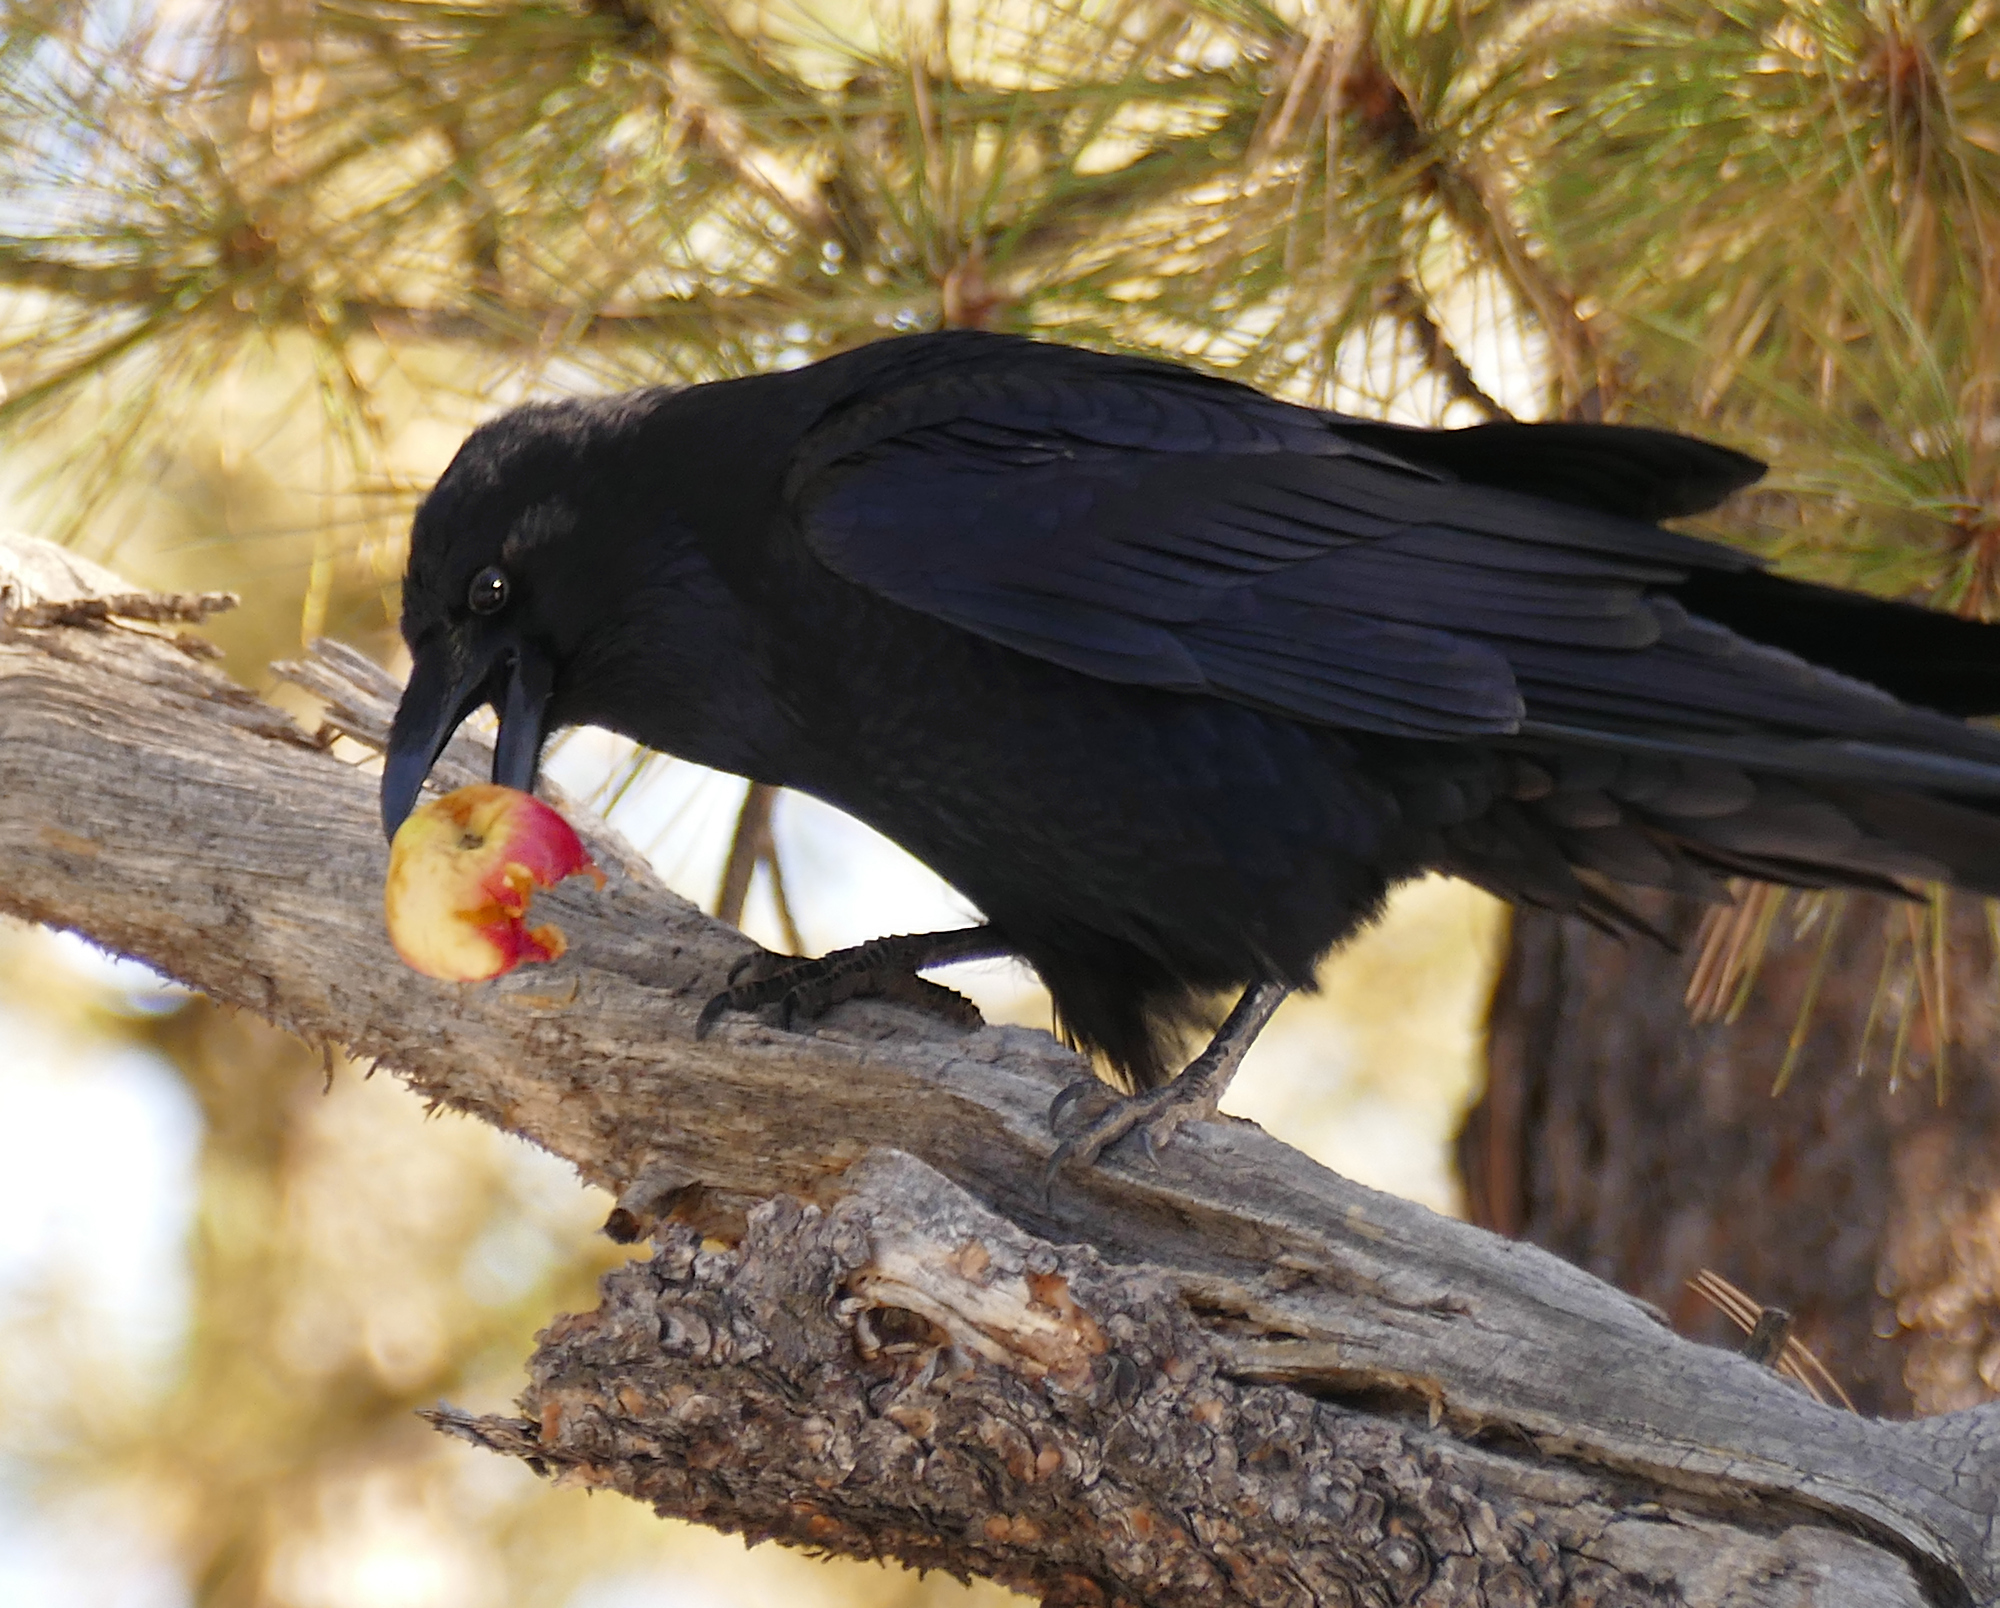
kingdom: Animalia
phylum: Chordata
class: Aves
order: Passeriformes
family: Corvidae
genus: Corvus
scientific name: Corvus corax
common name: Common raven
